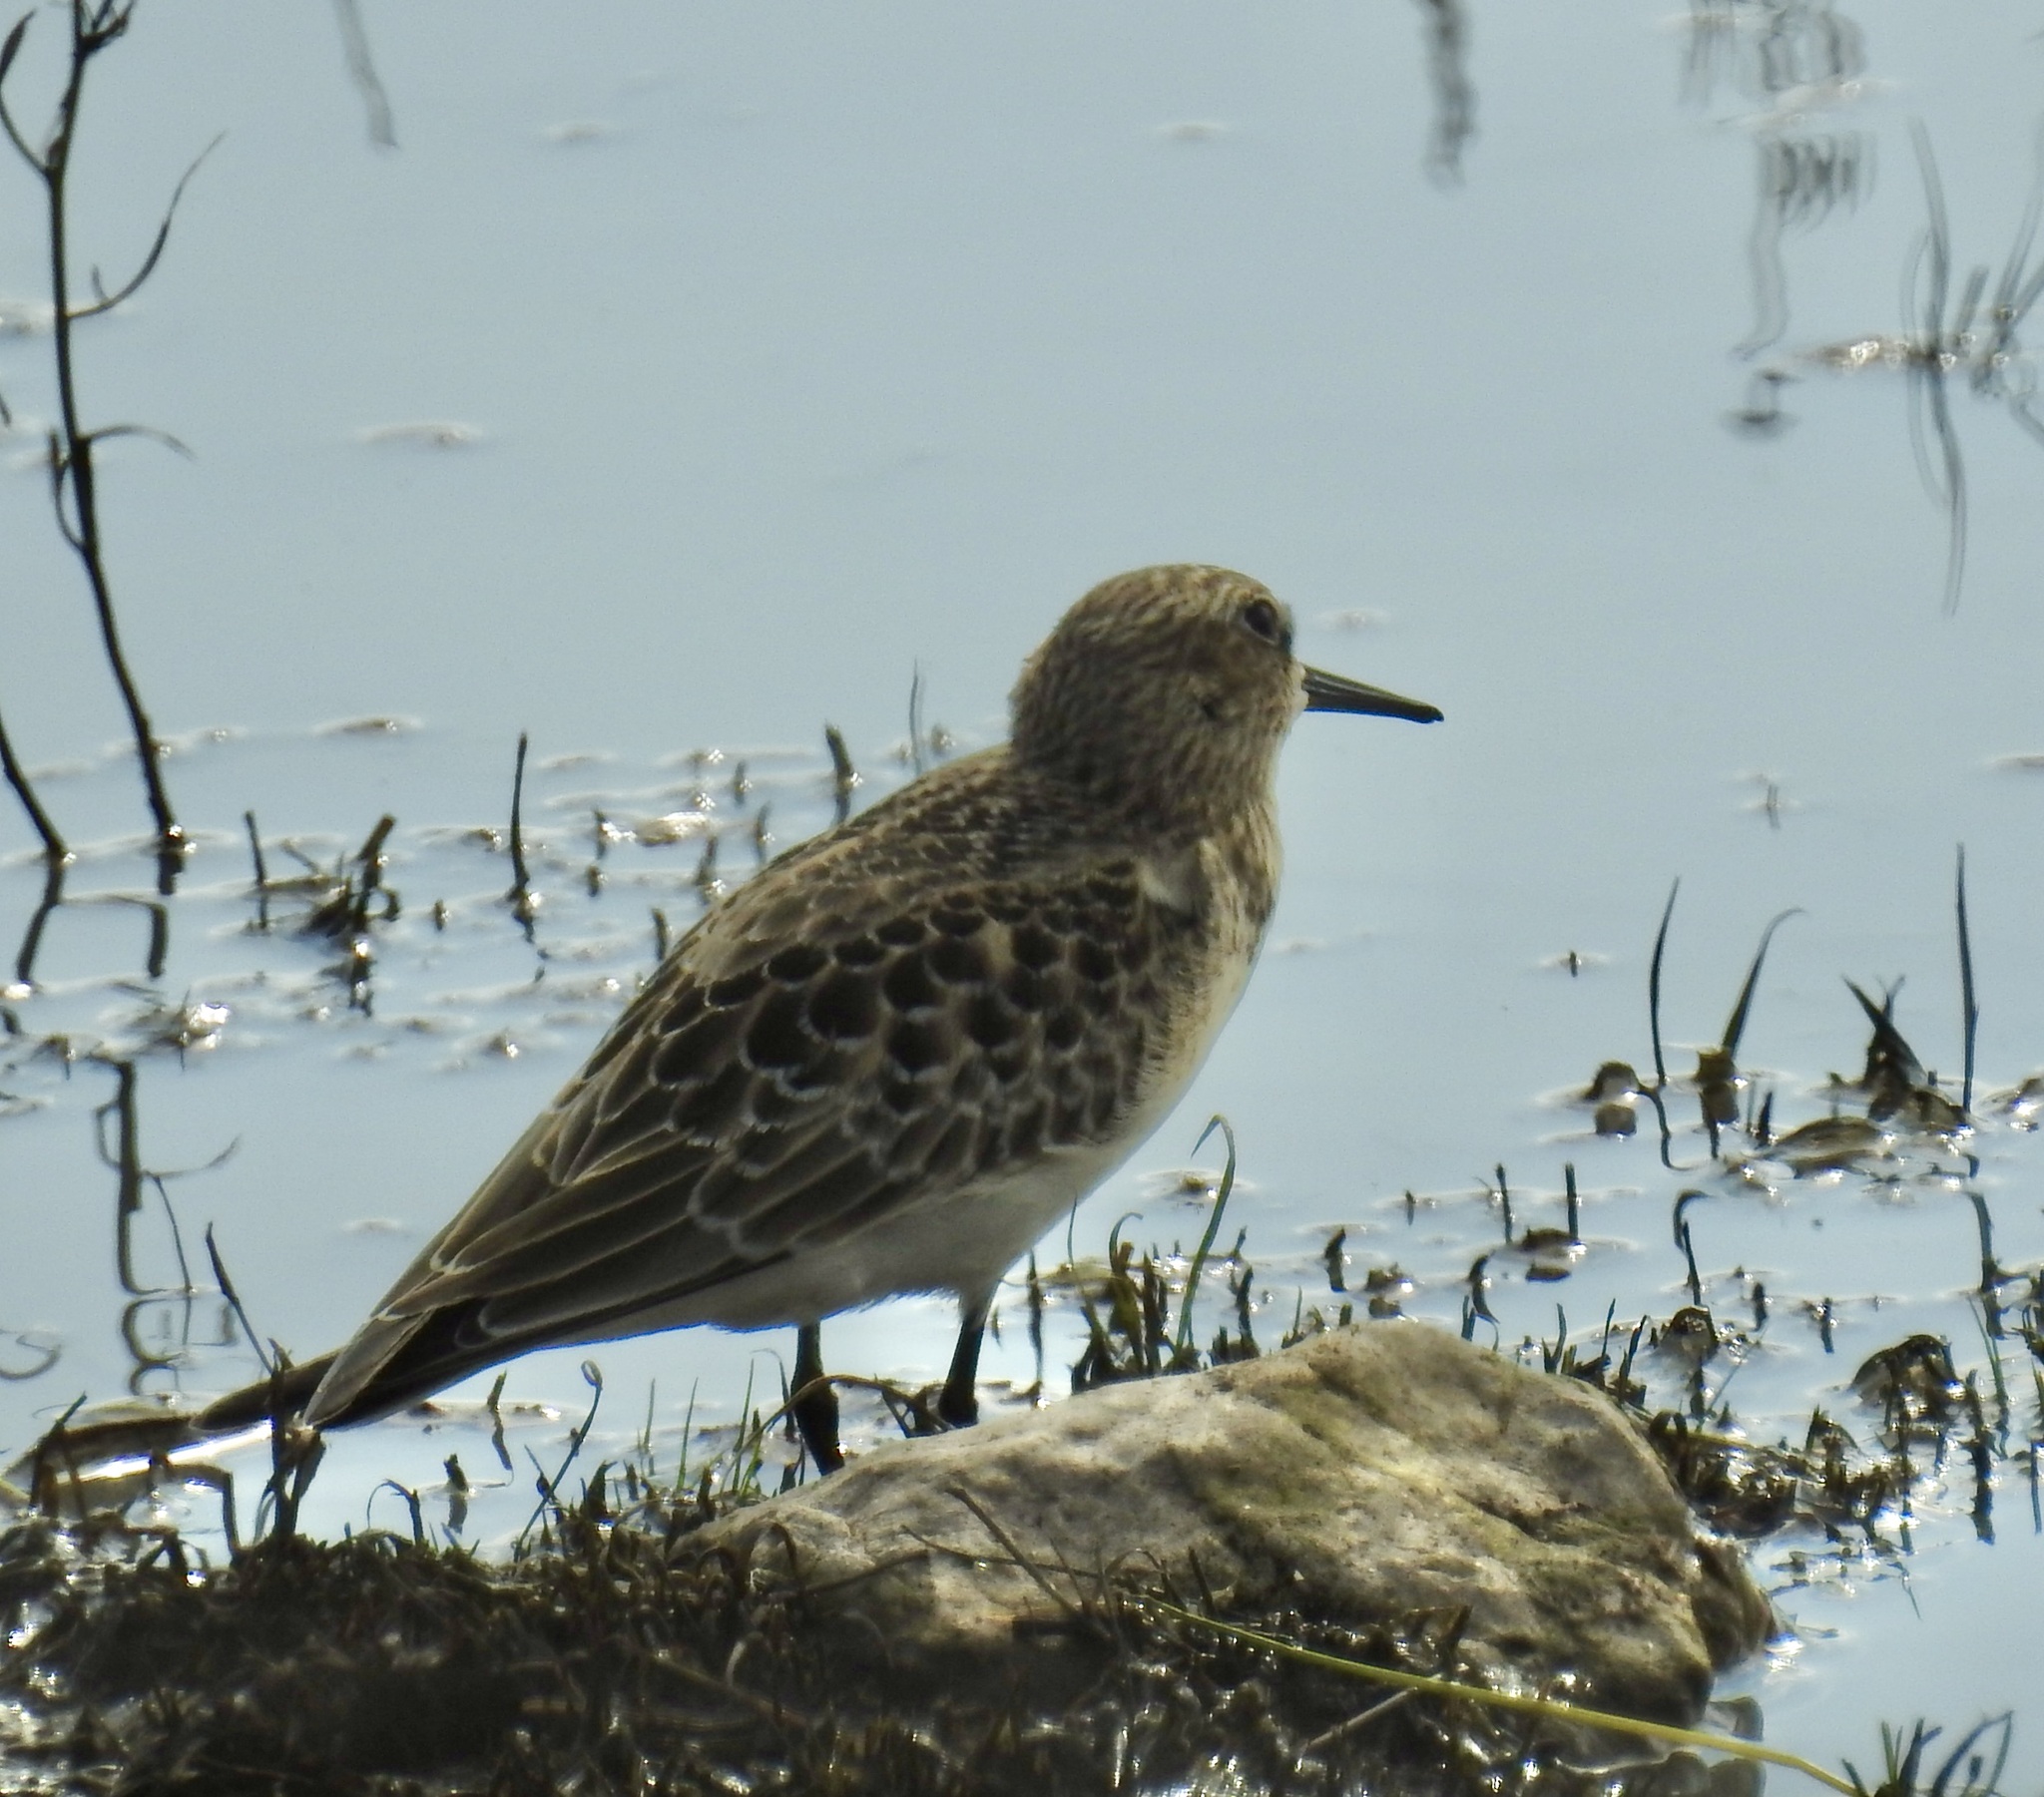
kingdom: Animalia
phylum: Chordata
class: Aves
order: Charadriiformes
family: Scolopacidae
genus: Calidris
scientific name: Calidris bairdii
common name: Baird's sandpiper
